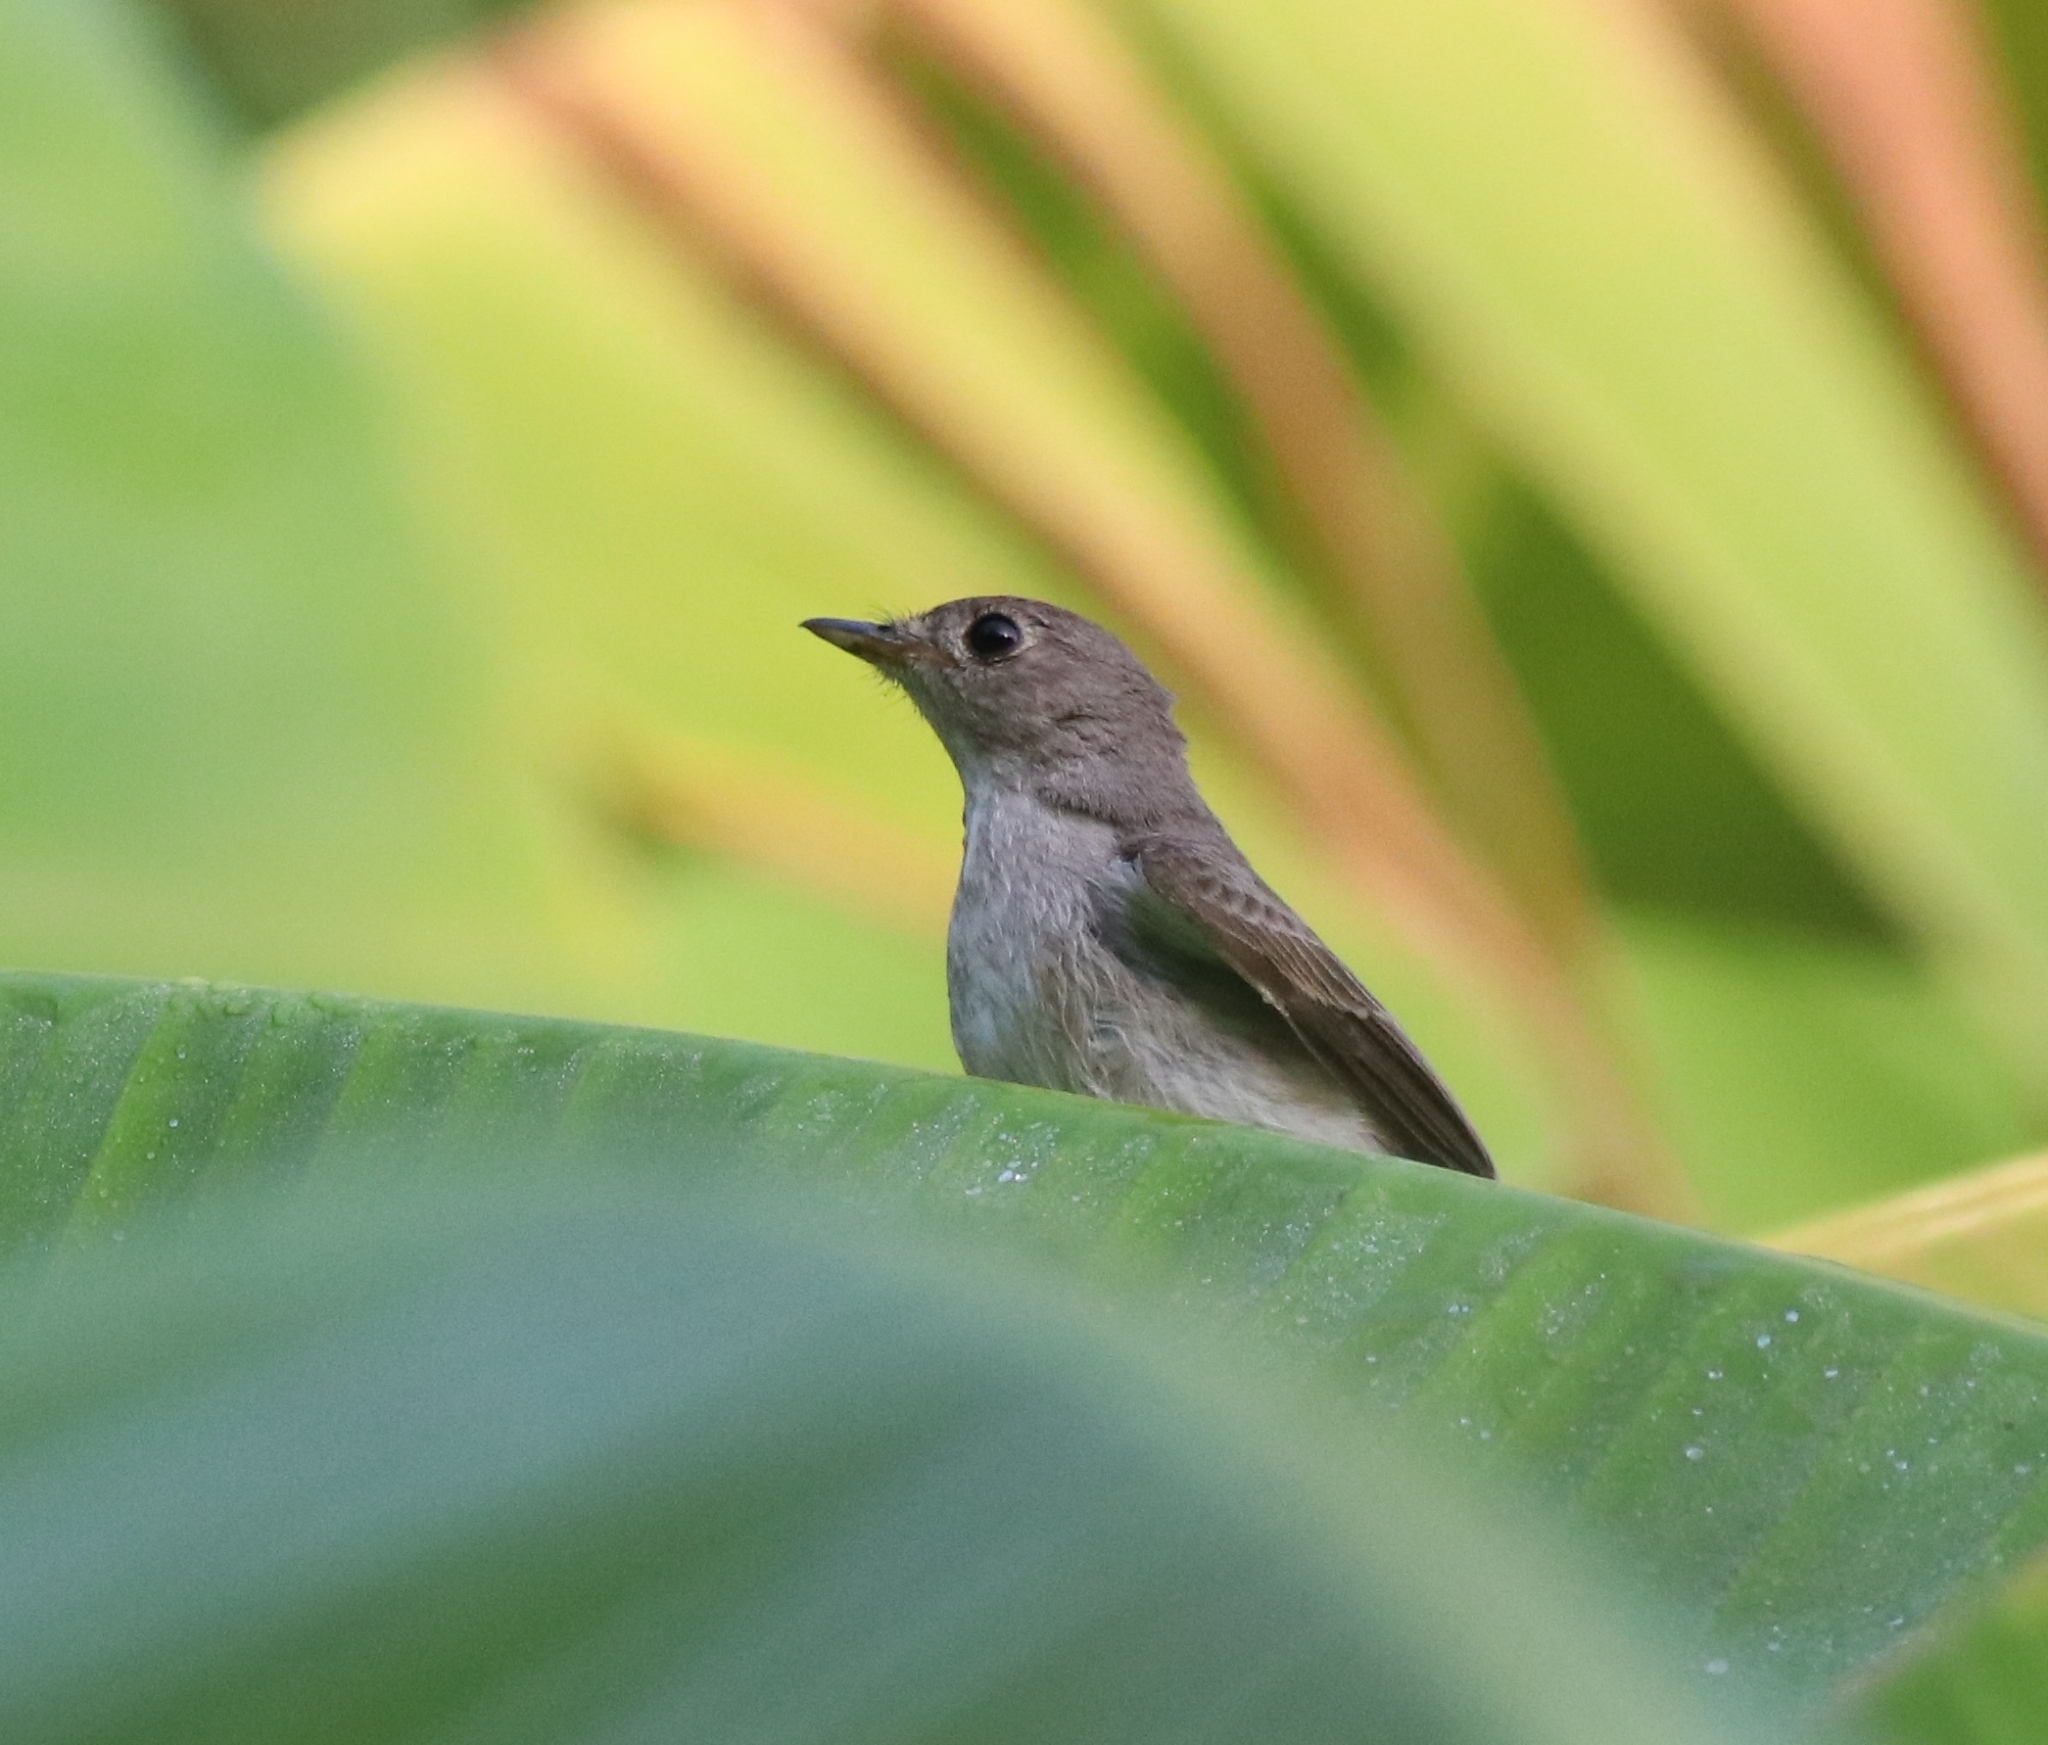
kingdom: Animalia
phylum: Chordata
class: Aves
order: Passeriformes
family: Muscicapidae
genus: Muscicapa
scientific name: Muscicapa latirostris
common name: Asian brown flycatcher
